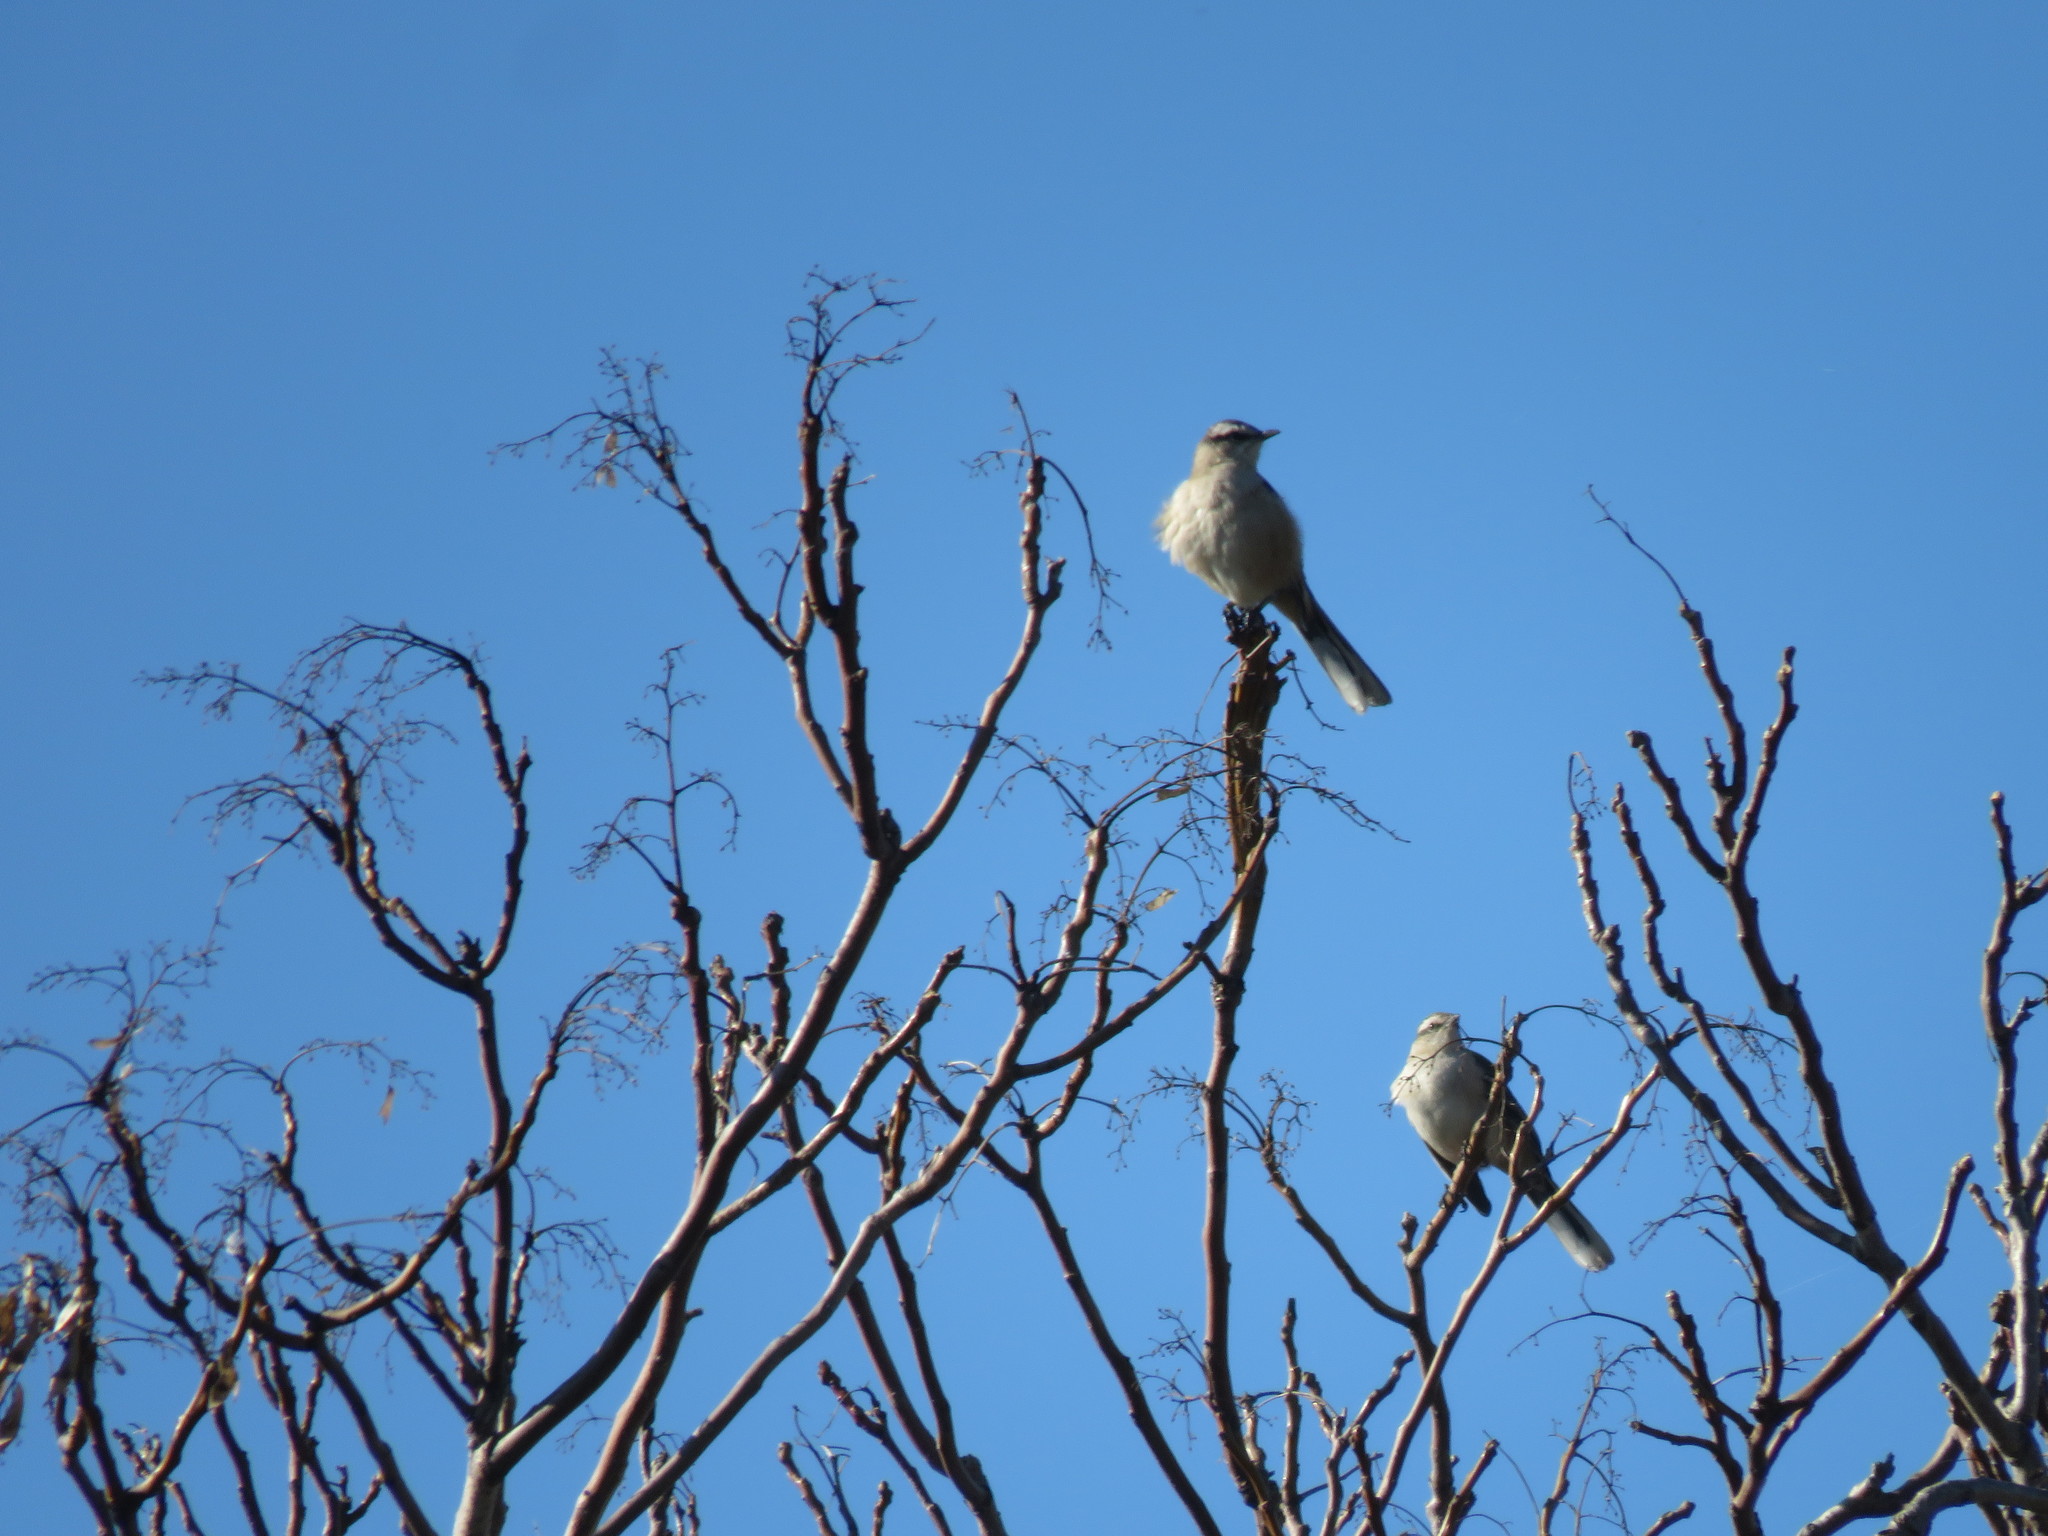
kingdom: Animalia
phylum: Chordata
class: Aves
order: Passeriformes
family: Mimidae
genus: Mimus
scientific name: Mimus saturninus
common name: Chalk-browed mockingbird
